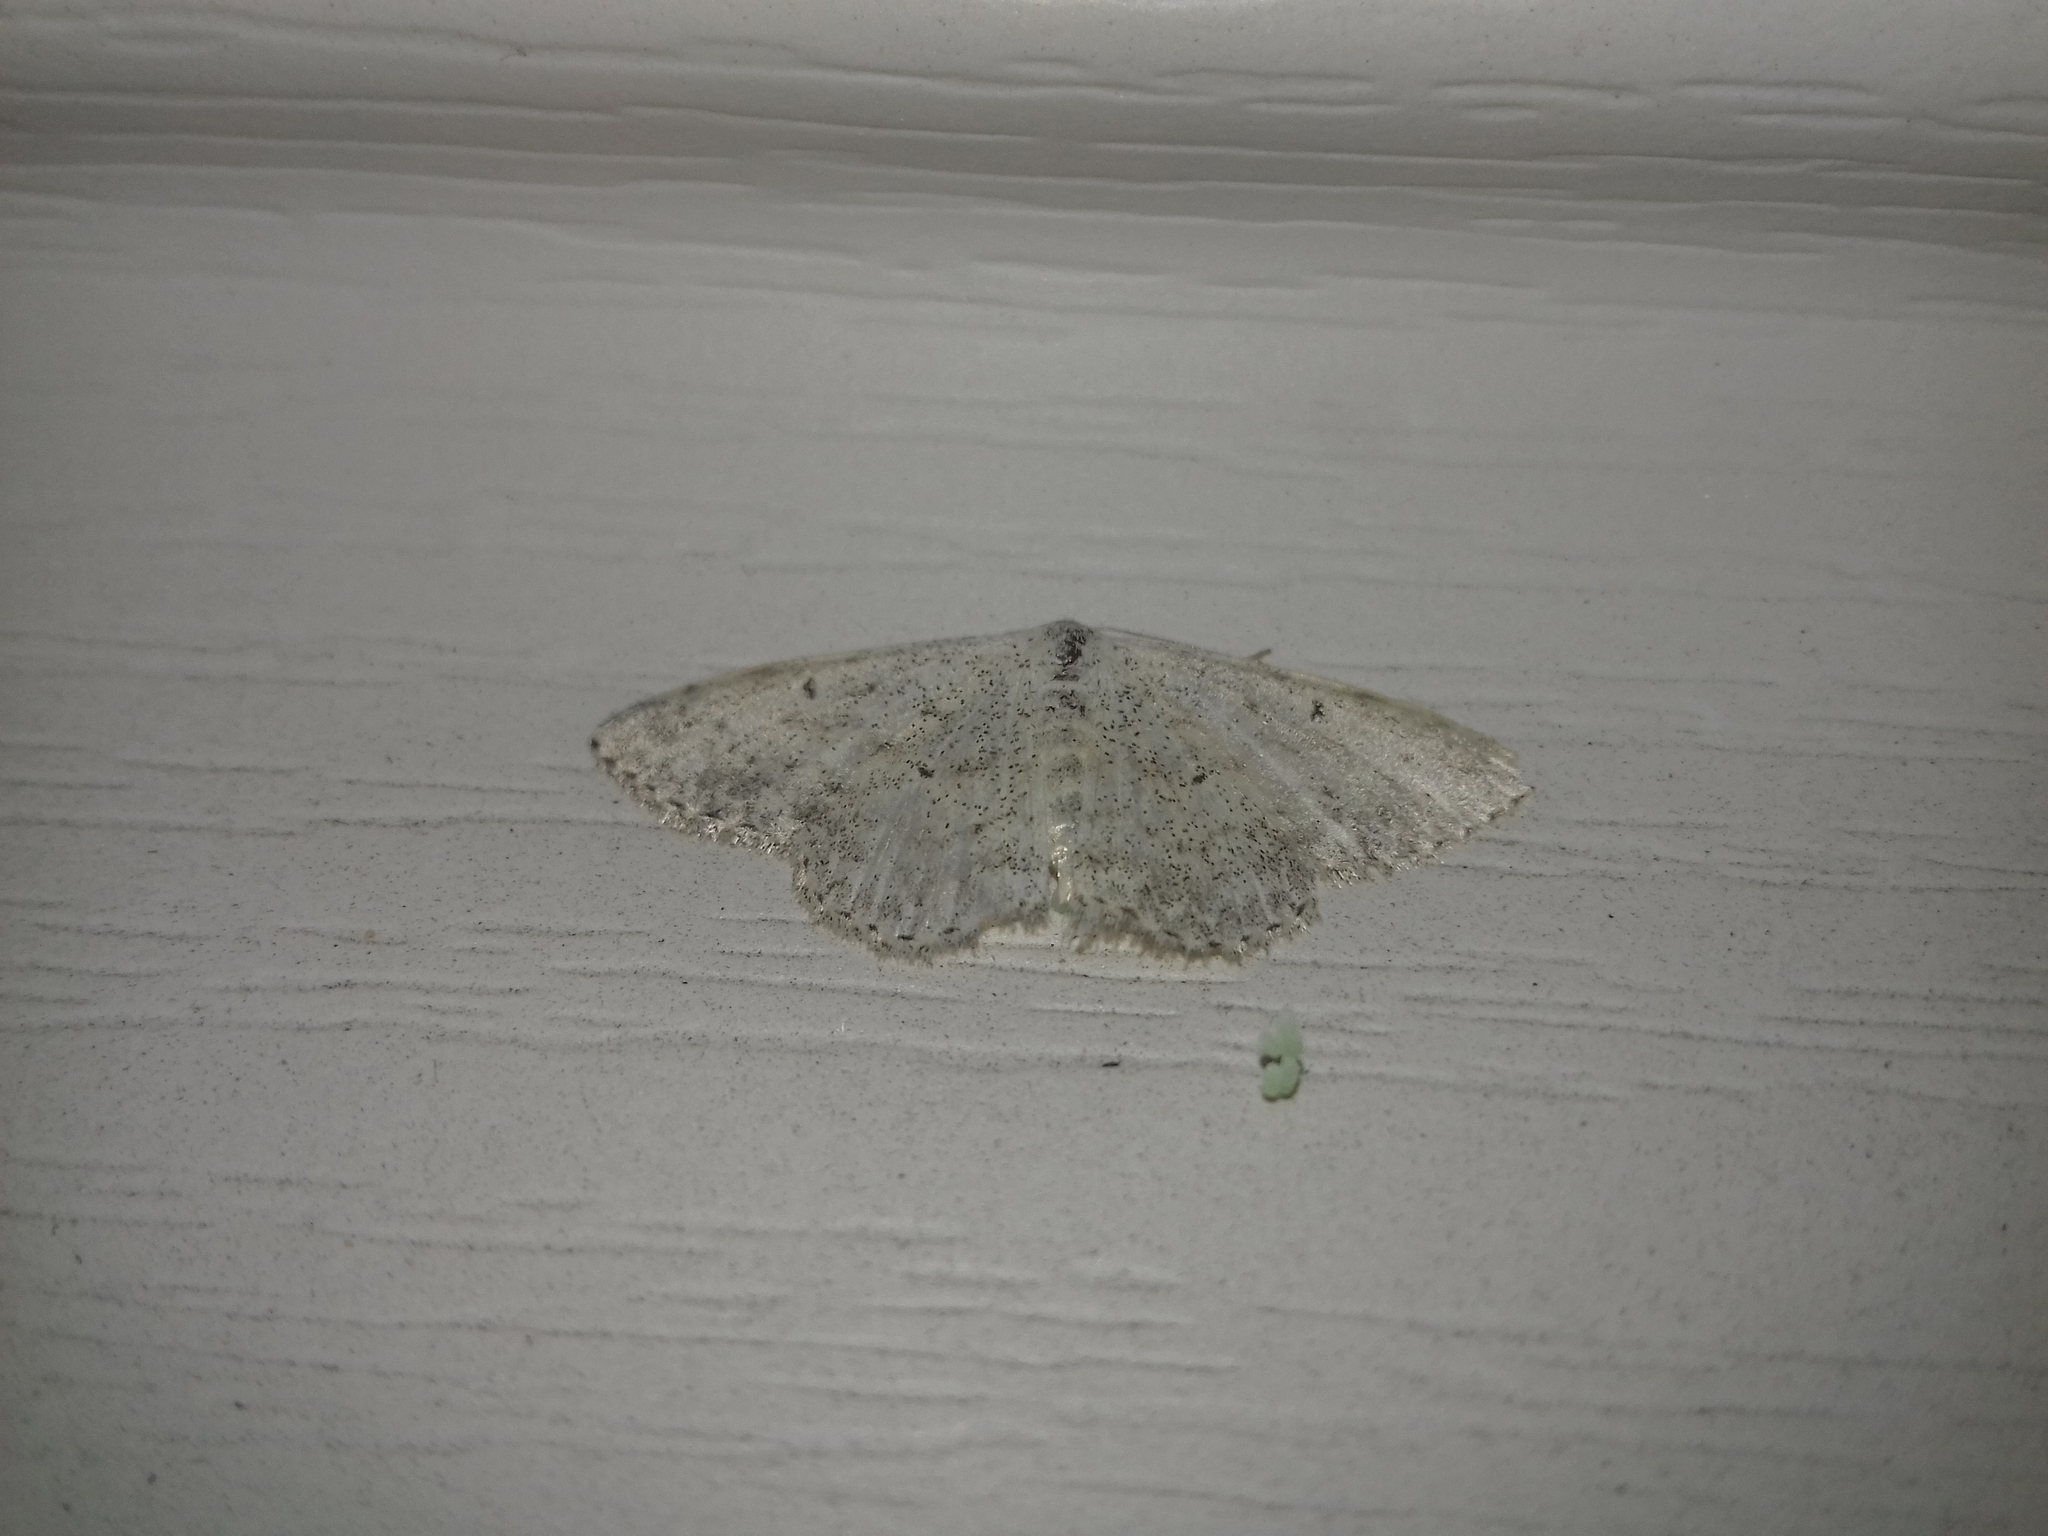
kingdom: Animalia
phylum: Arthropoda
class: Insecta
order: Lepidoptera
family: Geometridae
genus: Idaea
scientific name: Idaea seriata
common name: Small dusty wave
